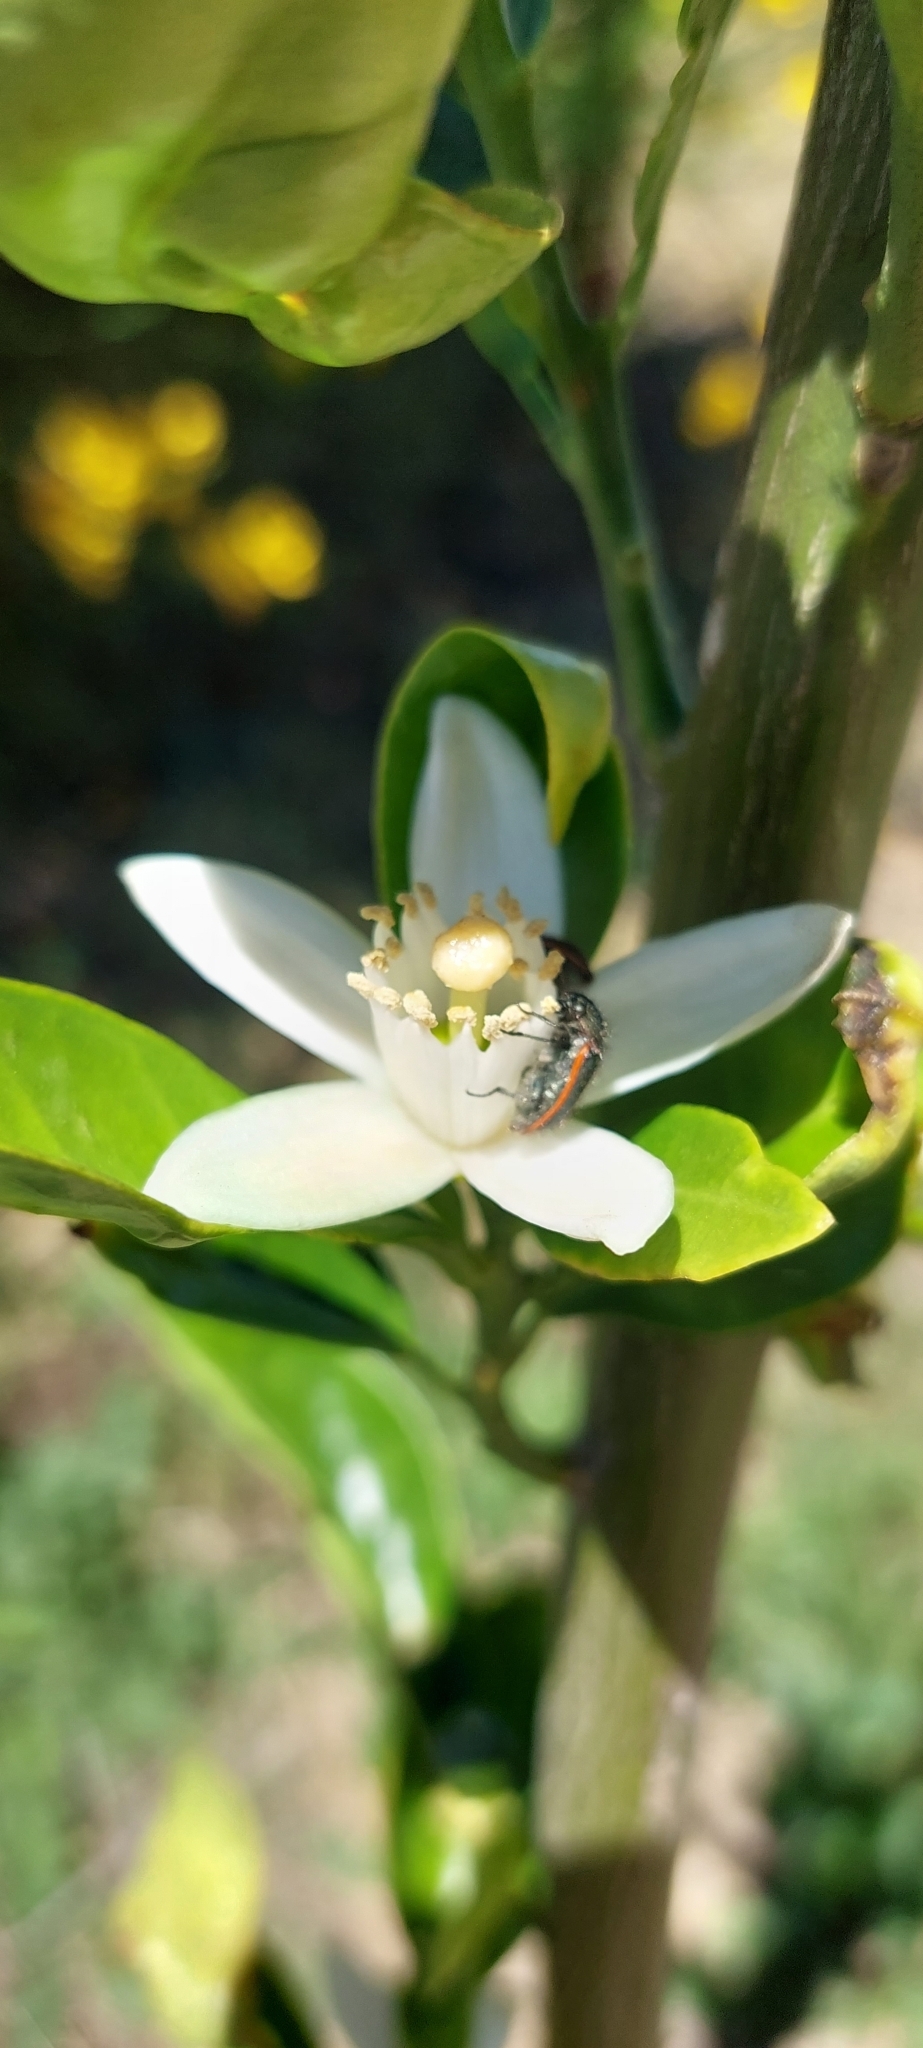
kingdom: Animalia
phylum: Arthropoda
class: Insecta
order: Coleoptera
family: Melyridae
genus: Astylus
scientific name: Astylus
